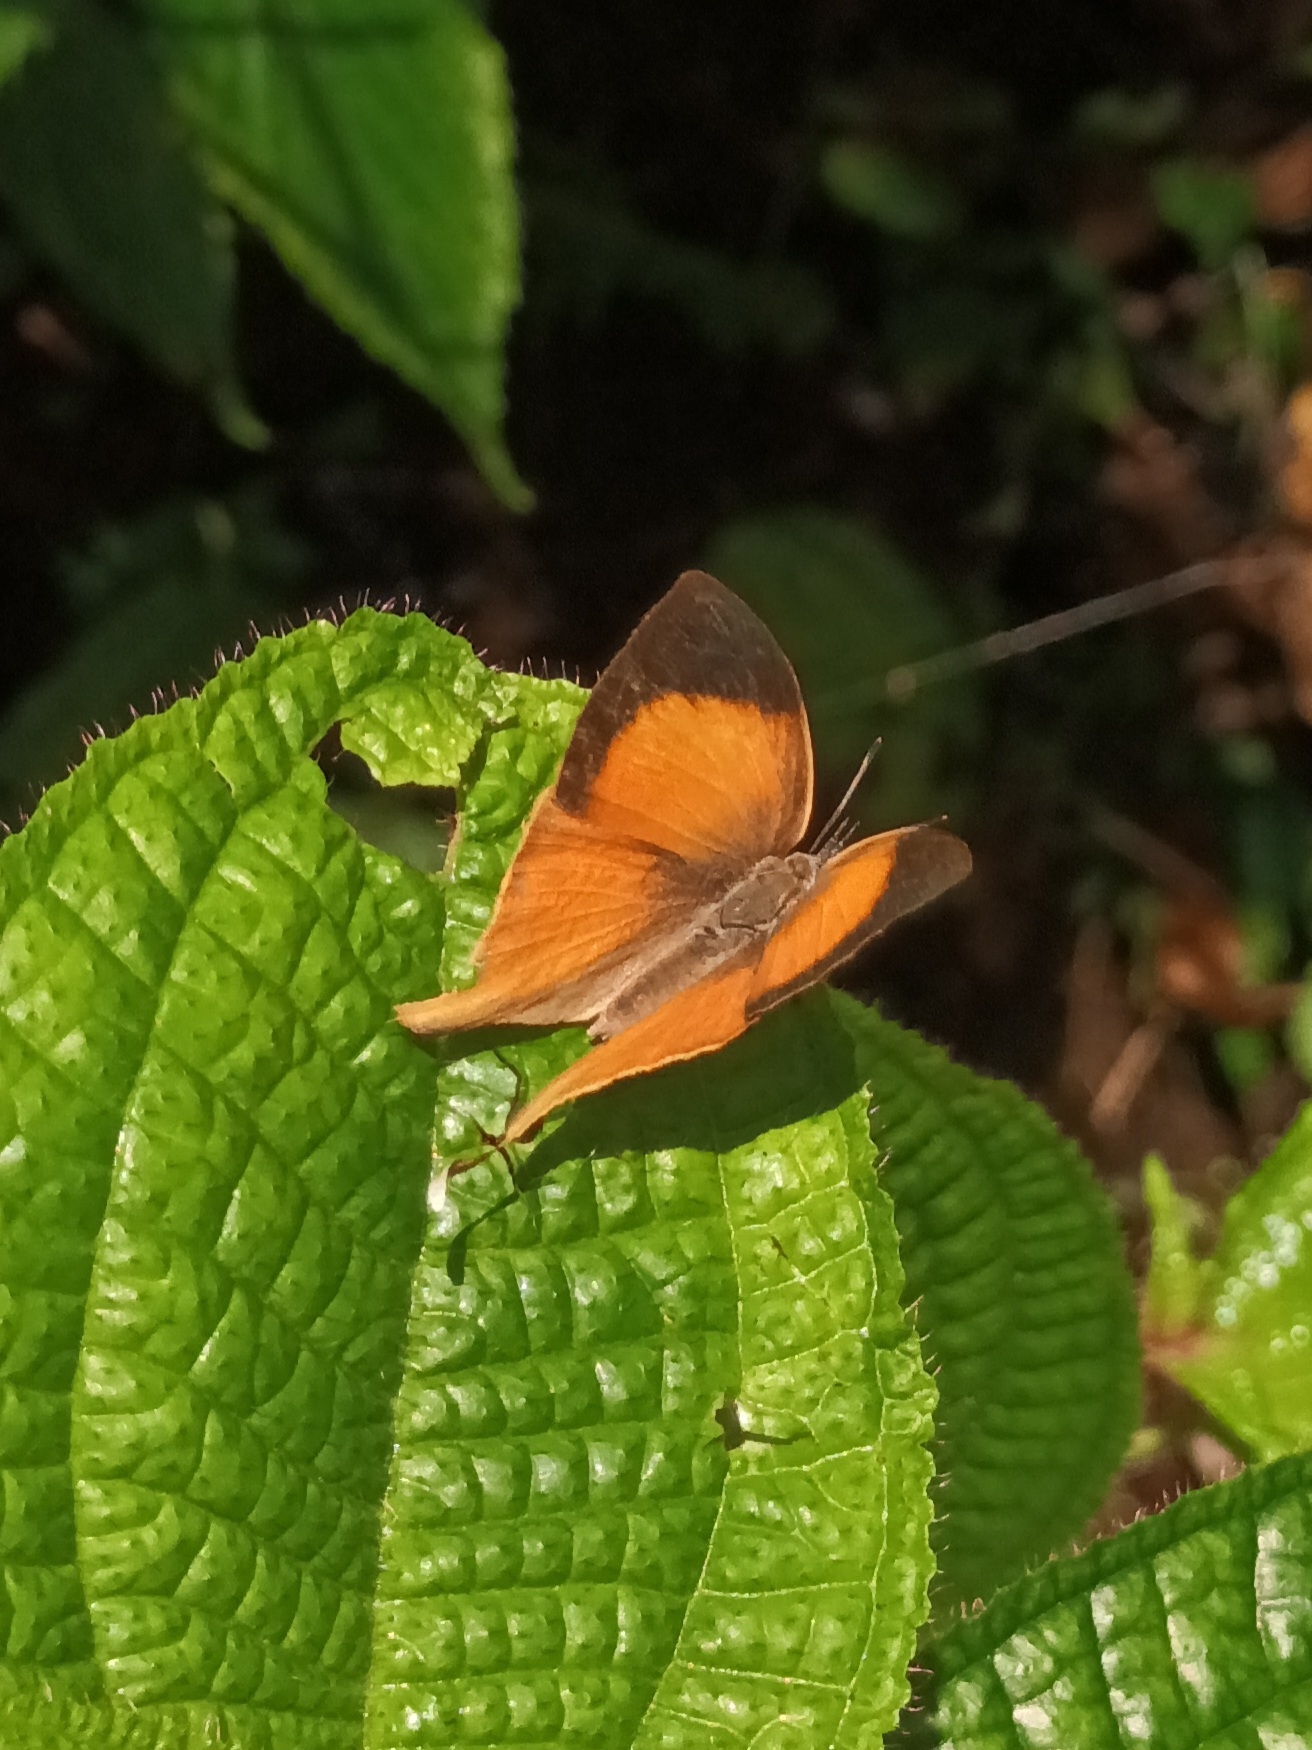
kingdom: Animalia
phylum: Arthropoda
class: Insecta
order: Lepidoptera
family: Lycaenidae
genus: Loxura
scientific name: Loxura atymnus
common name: Common yamfly
